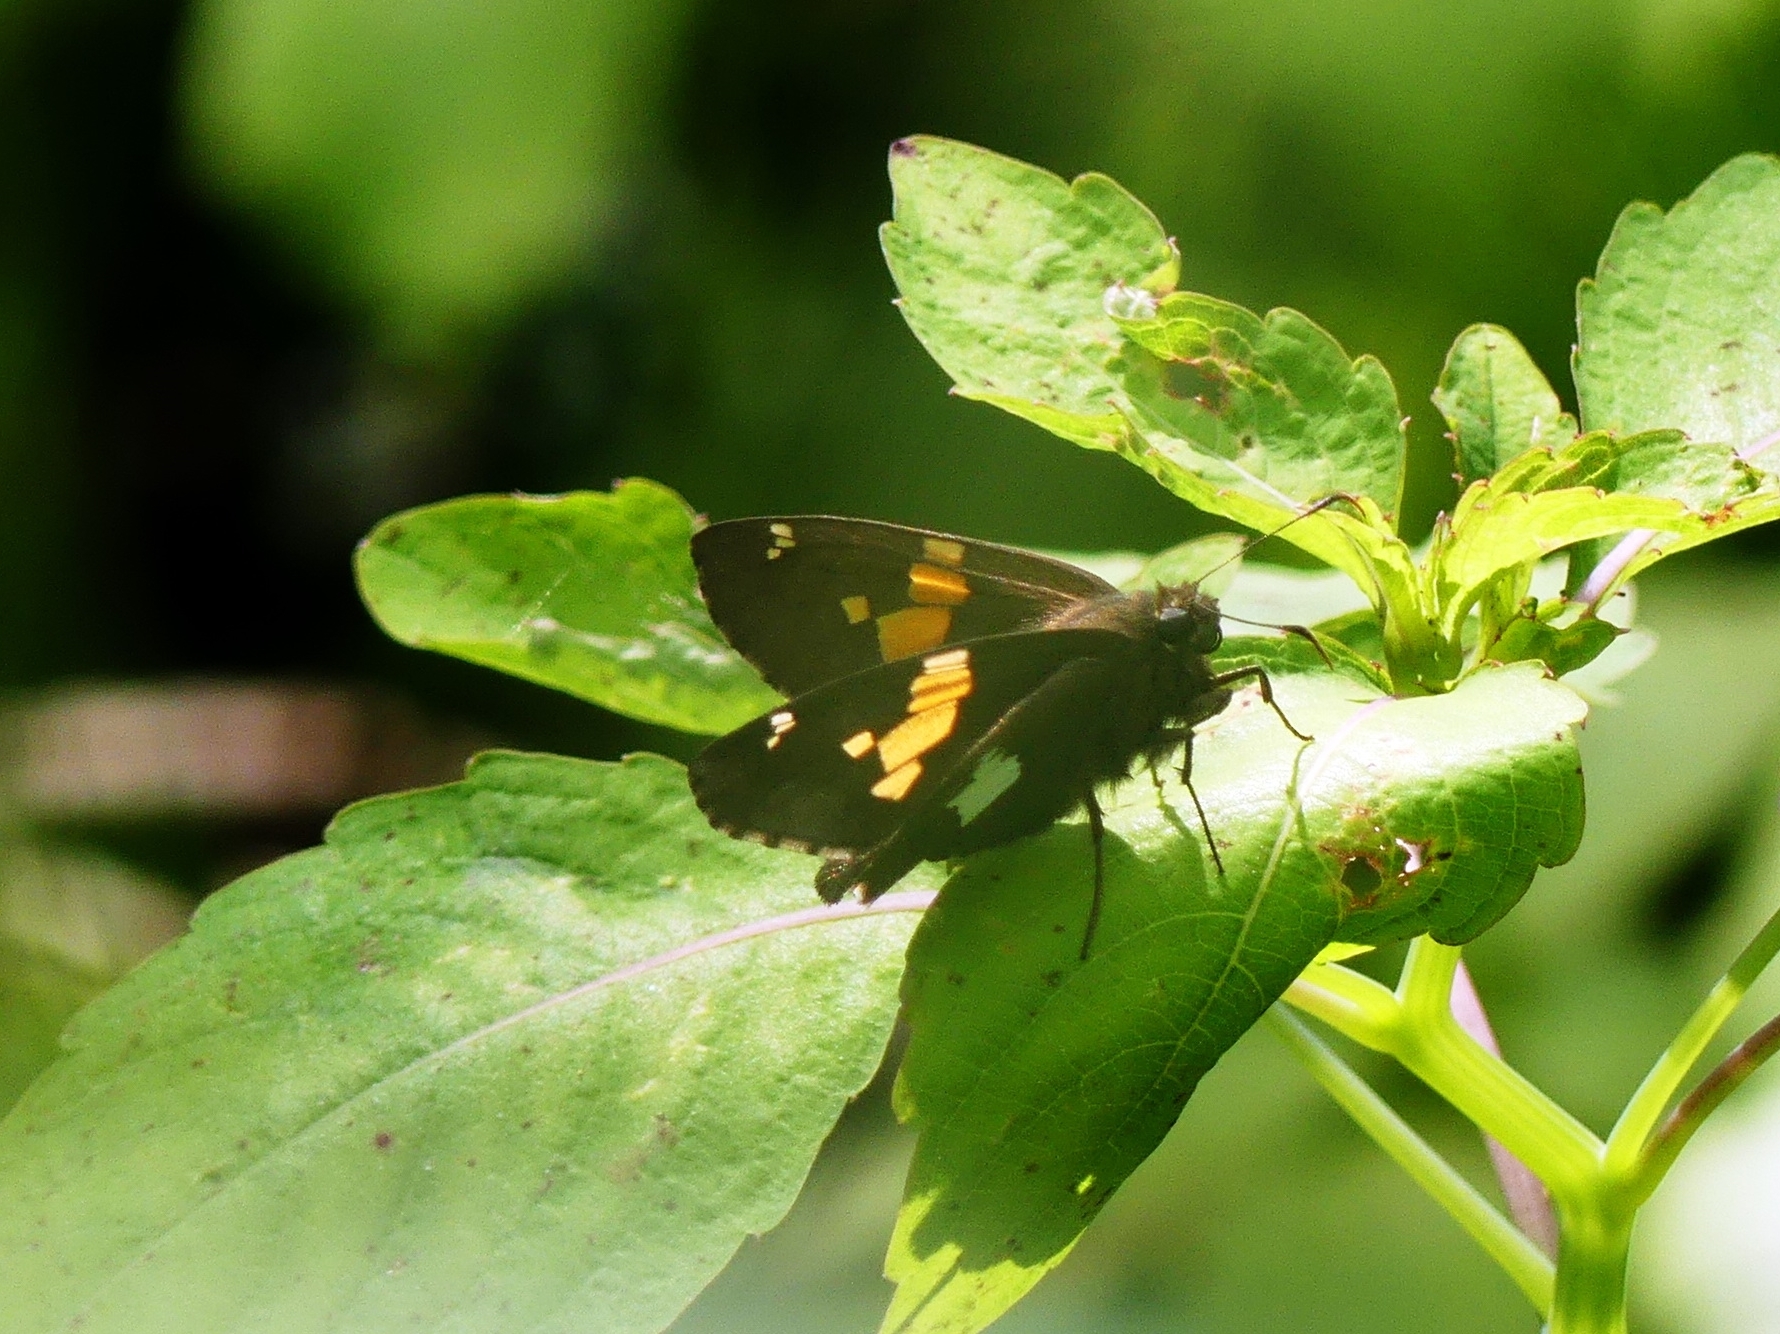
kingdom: Animalia
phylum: Arthropoda
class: Insecta
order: Lepidoptera
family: Hesperiidae
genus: Epargyreus
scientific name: Epargyreus clarus
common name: Silver-spotted skipper
